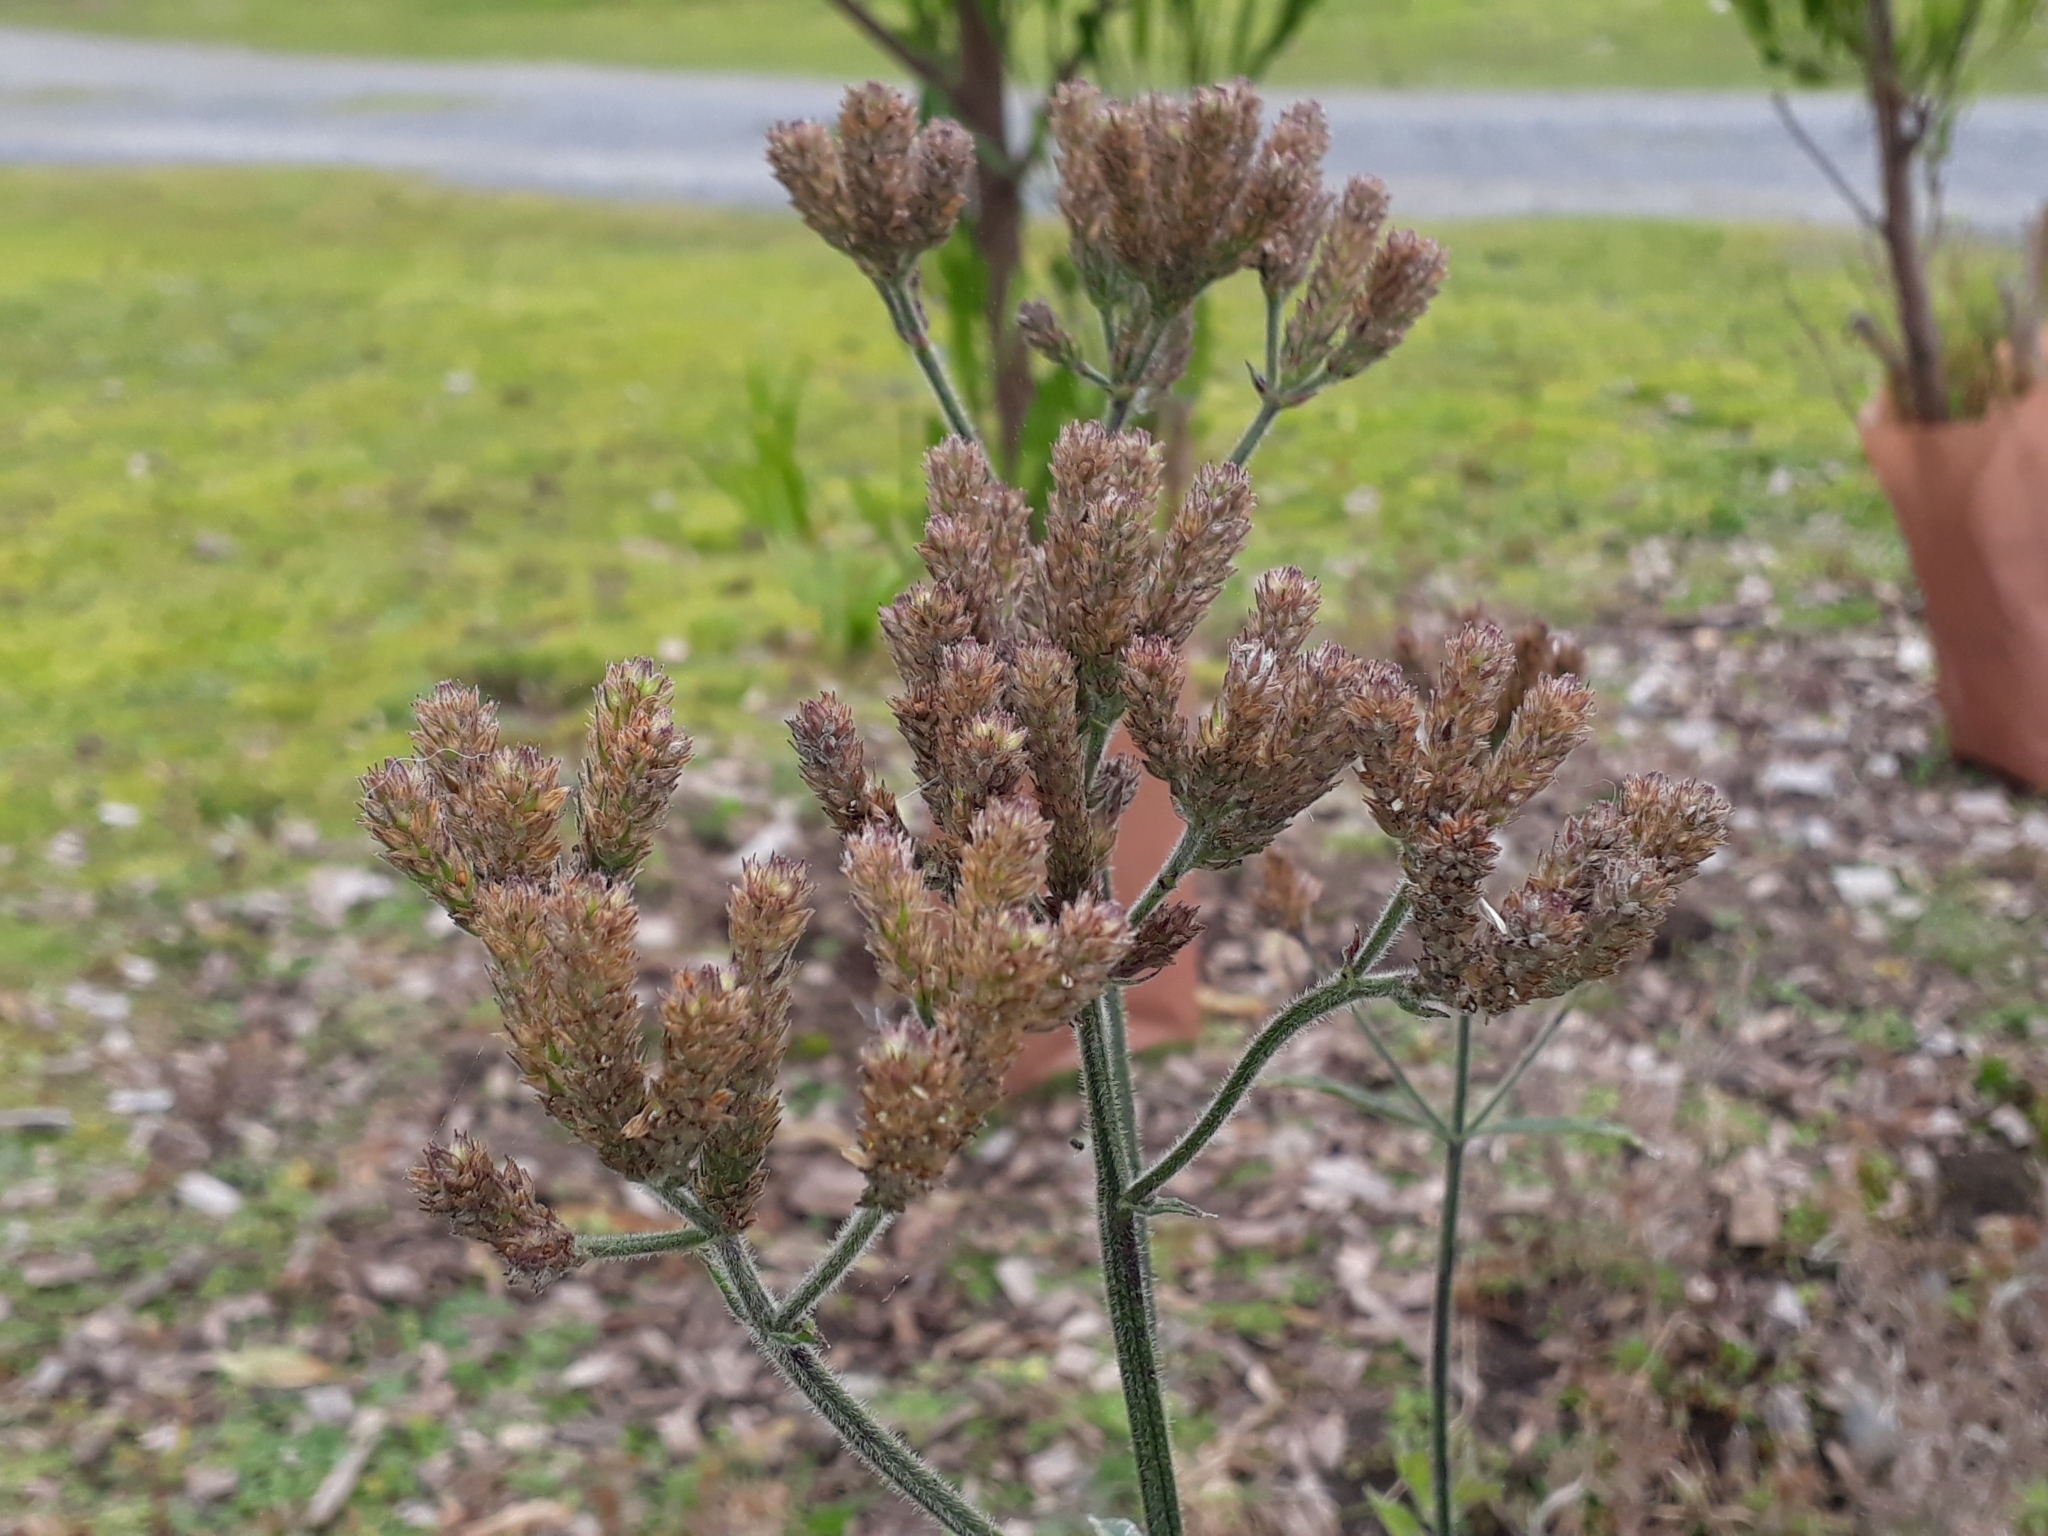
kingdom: Plantae
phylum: Tracheophyta
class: Magnoliopsida
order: Lamiales
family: Verbenaceae
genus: Verbena
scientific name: Verbena incompta
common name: Purpletop vervain
